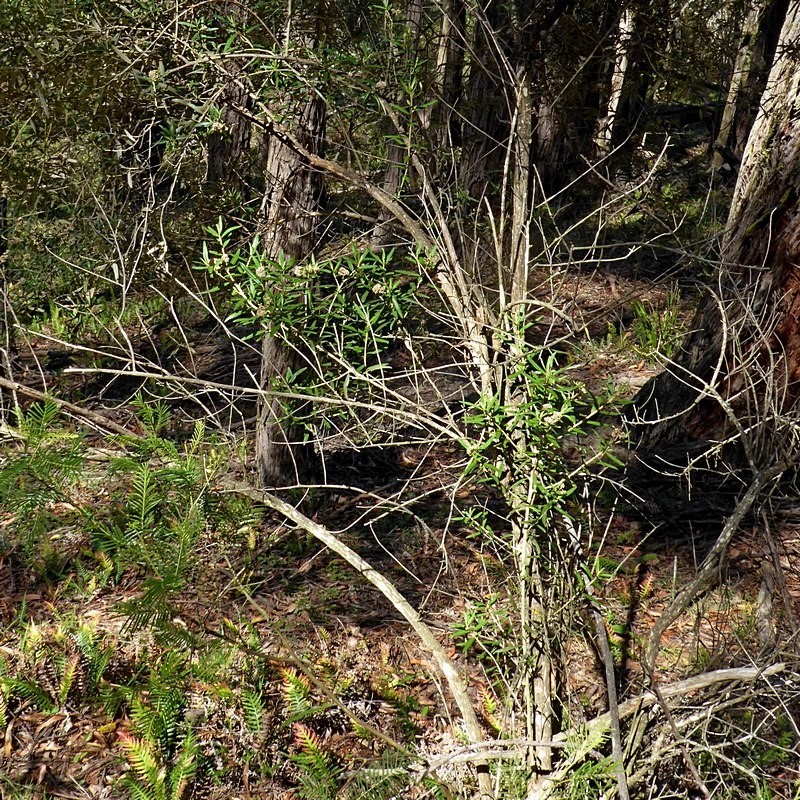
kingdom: Plantae
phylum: Tracheophyta
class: Magnoliopsida
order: Asterales
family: Asteraceae
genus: Ozothamnus
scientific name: Ozothamnus argophyllus
